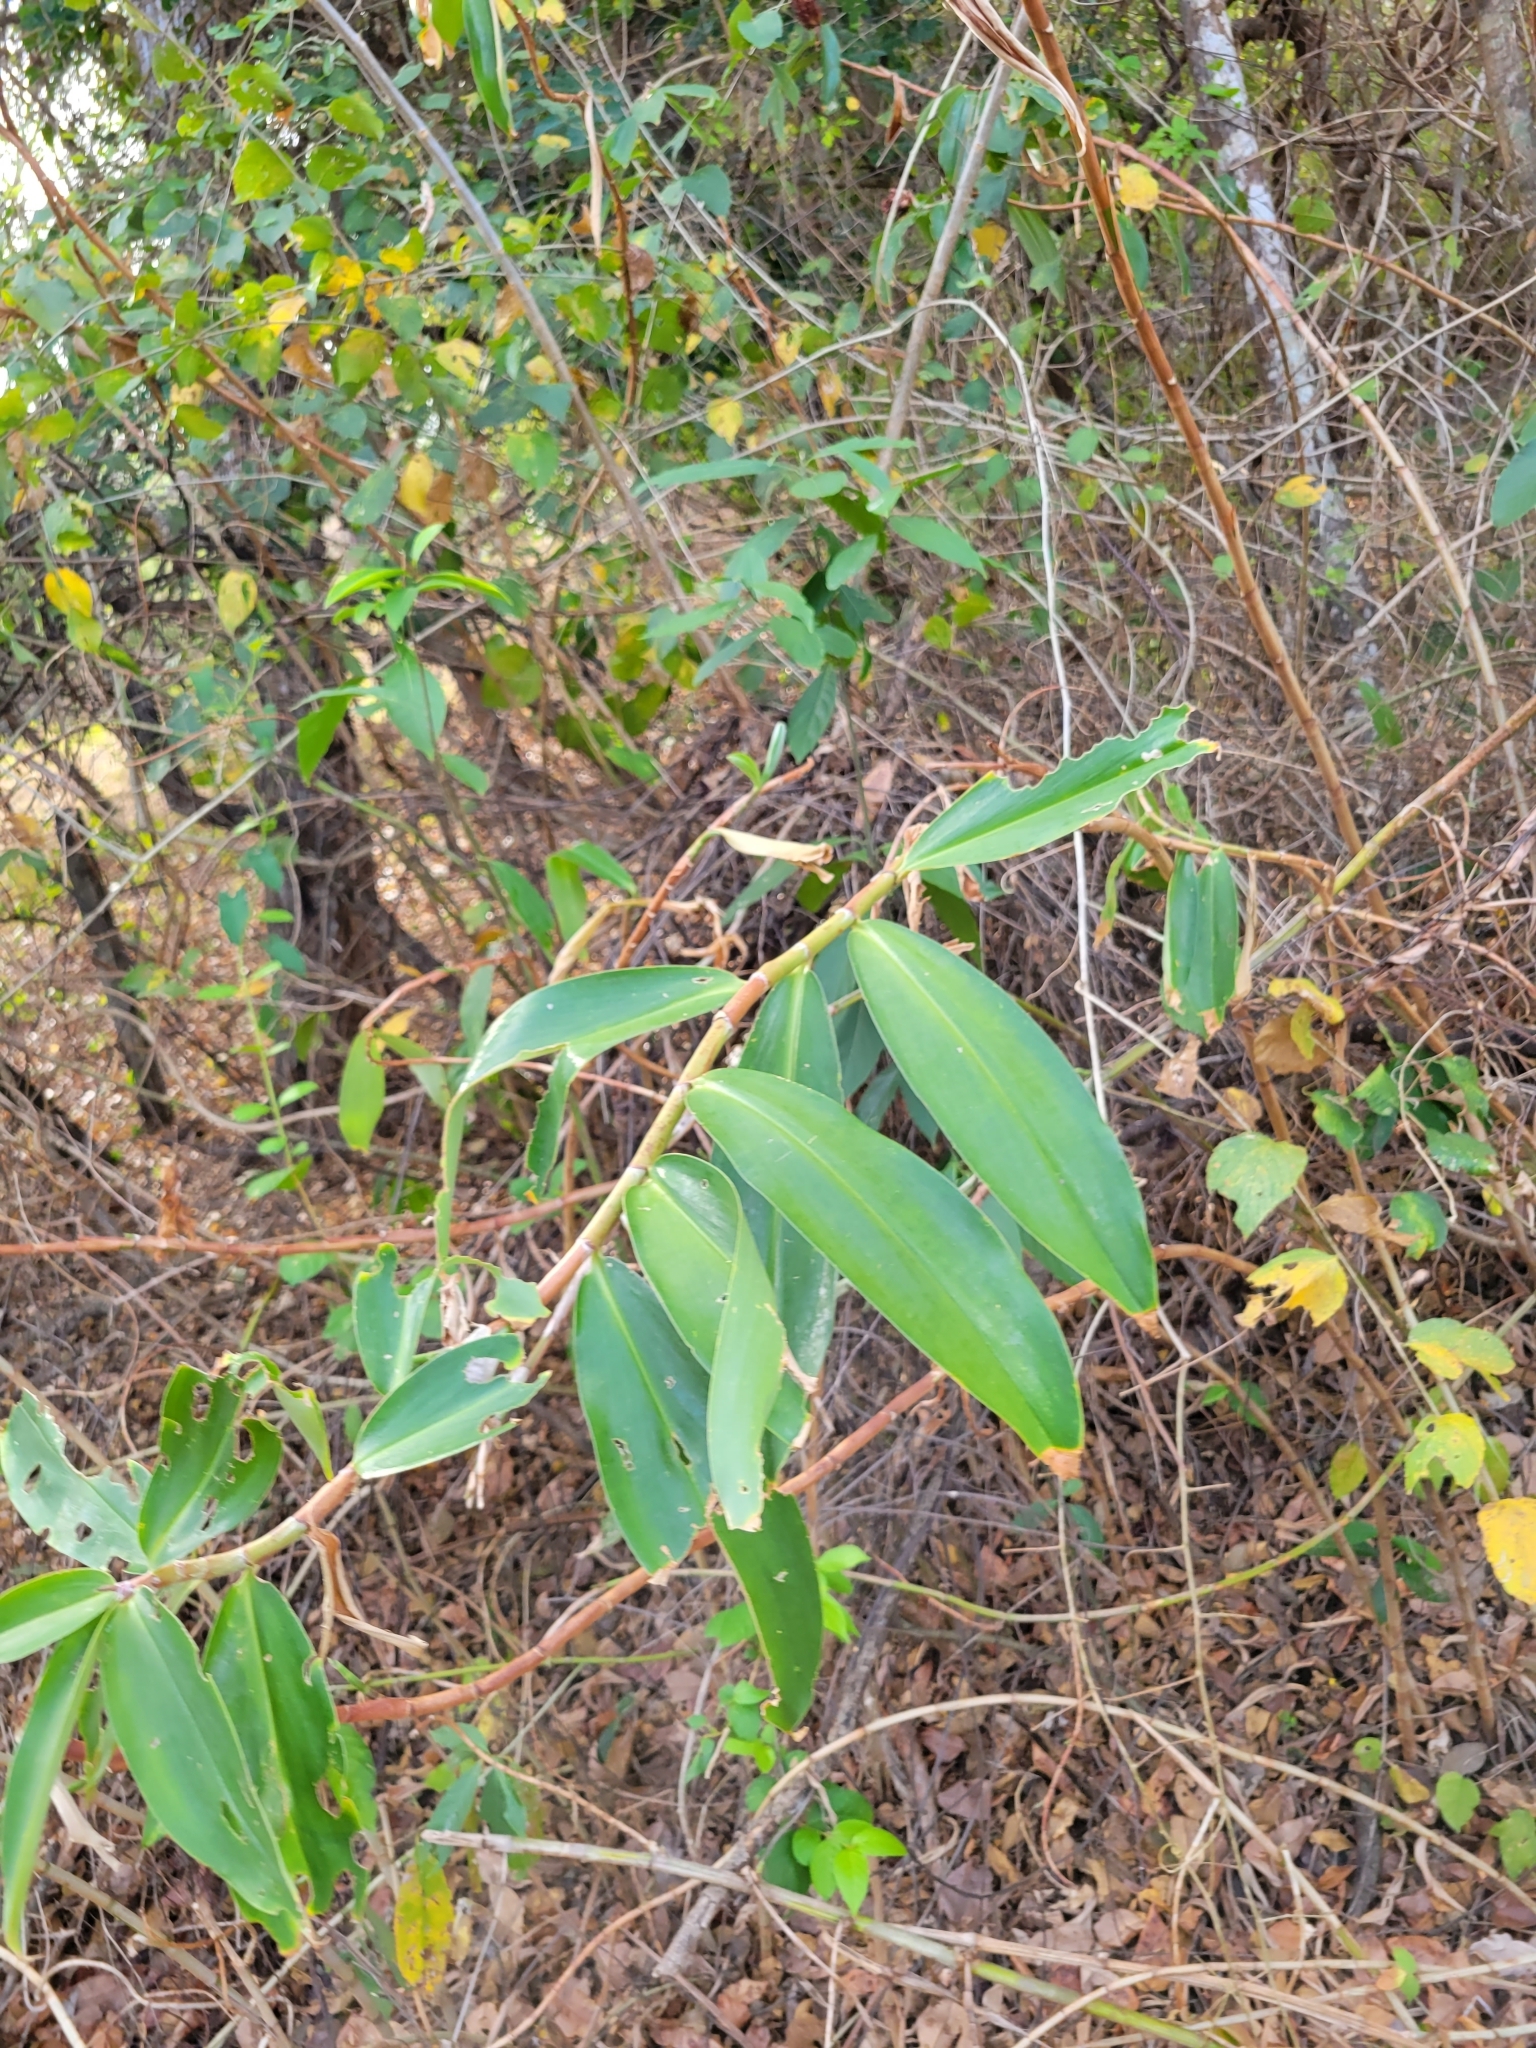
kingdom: Plantae
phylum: Tracheophyta
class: Liliopsida
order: Zingiberales
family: Costaceae
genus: Hellenia
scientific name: Hellenia speciosa
